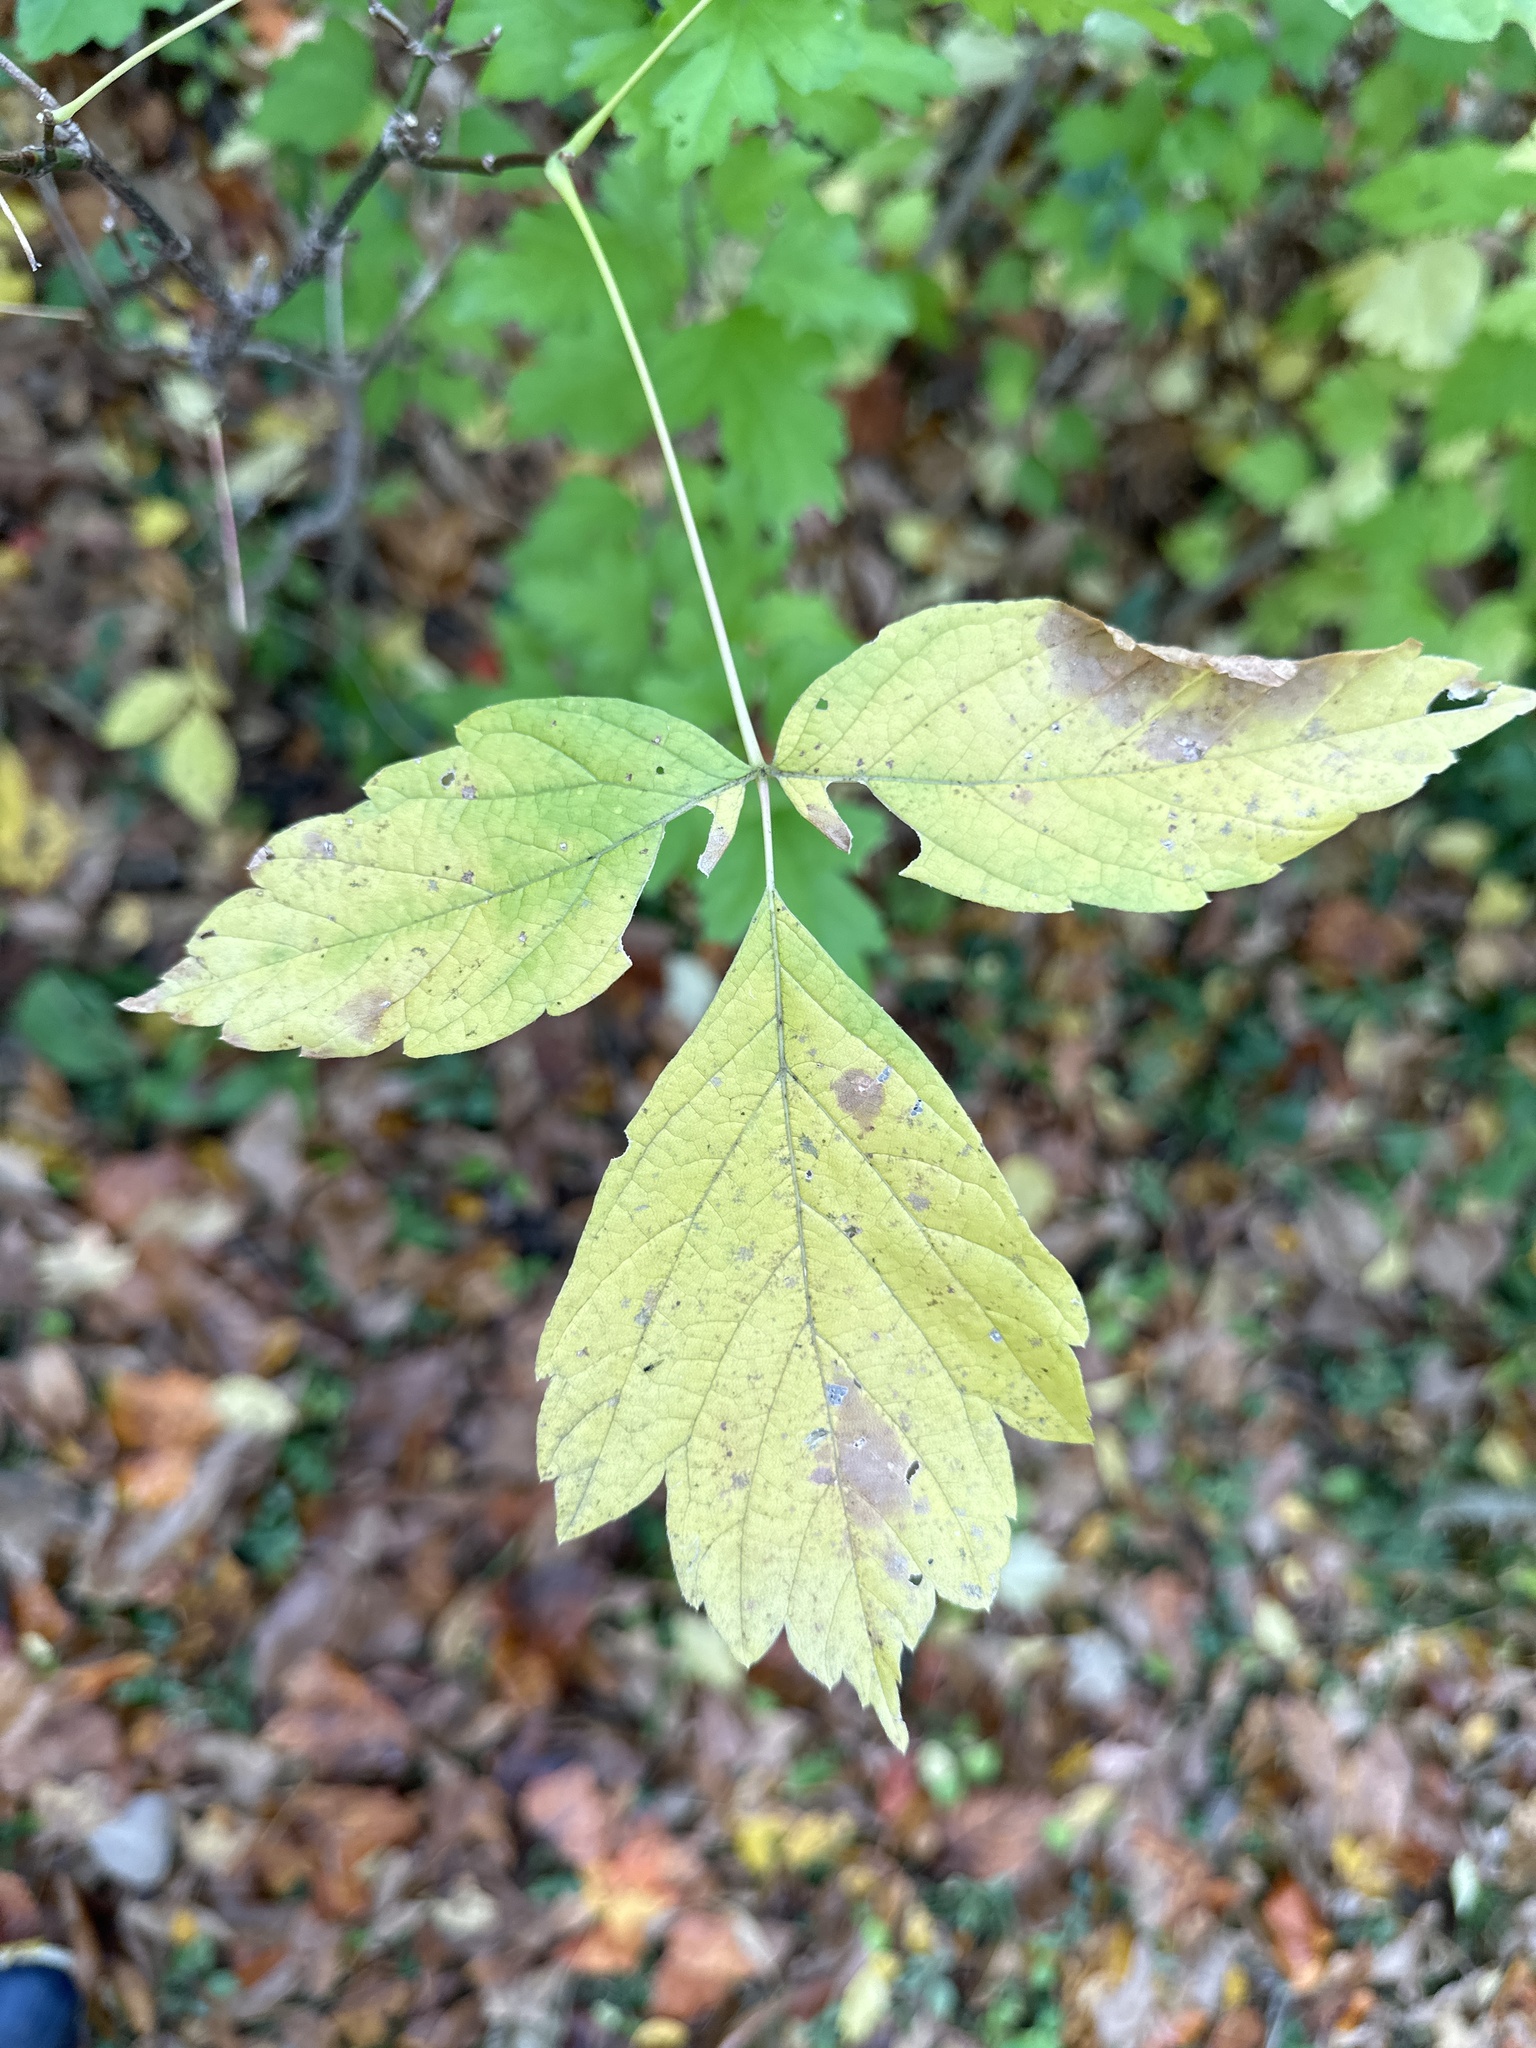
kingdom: Plantae
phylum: Tracheophyta
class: Magnoliopsida
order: Sapindales
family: Sapindaceae
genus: Acer
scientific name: Acer negundo
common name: Ashleaf maple
